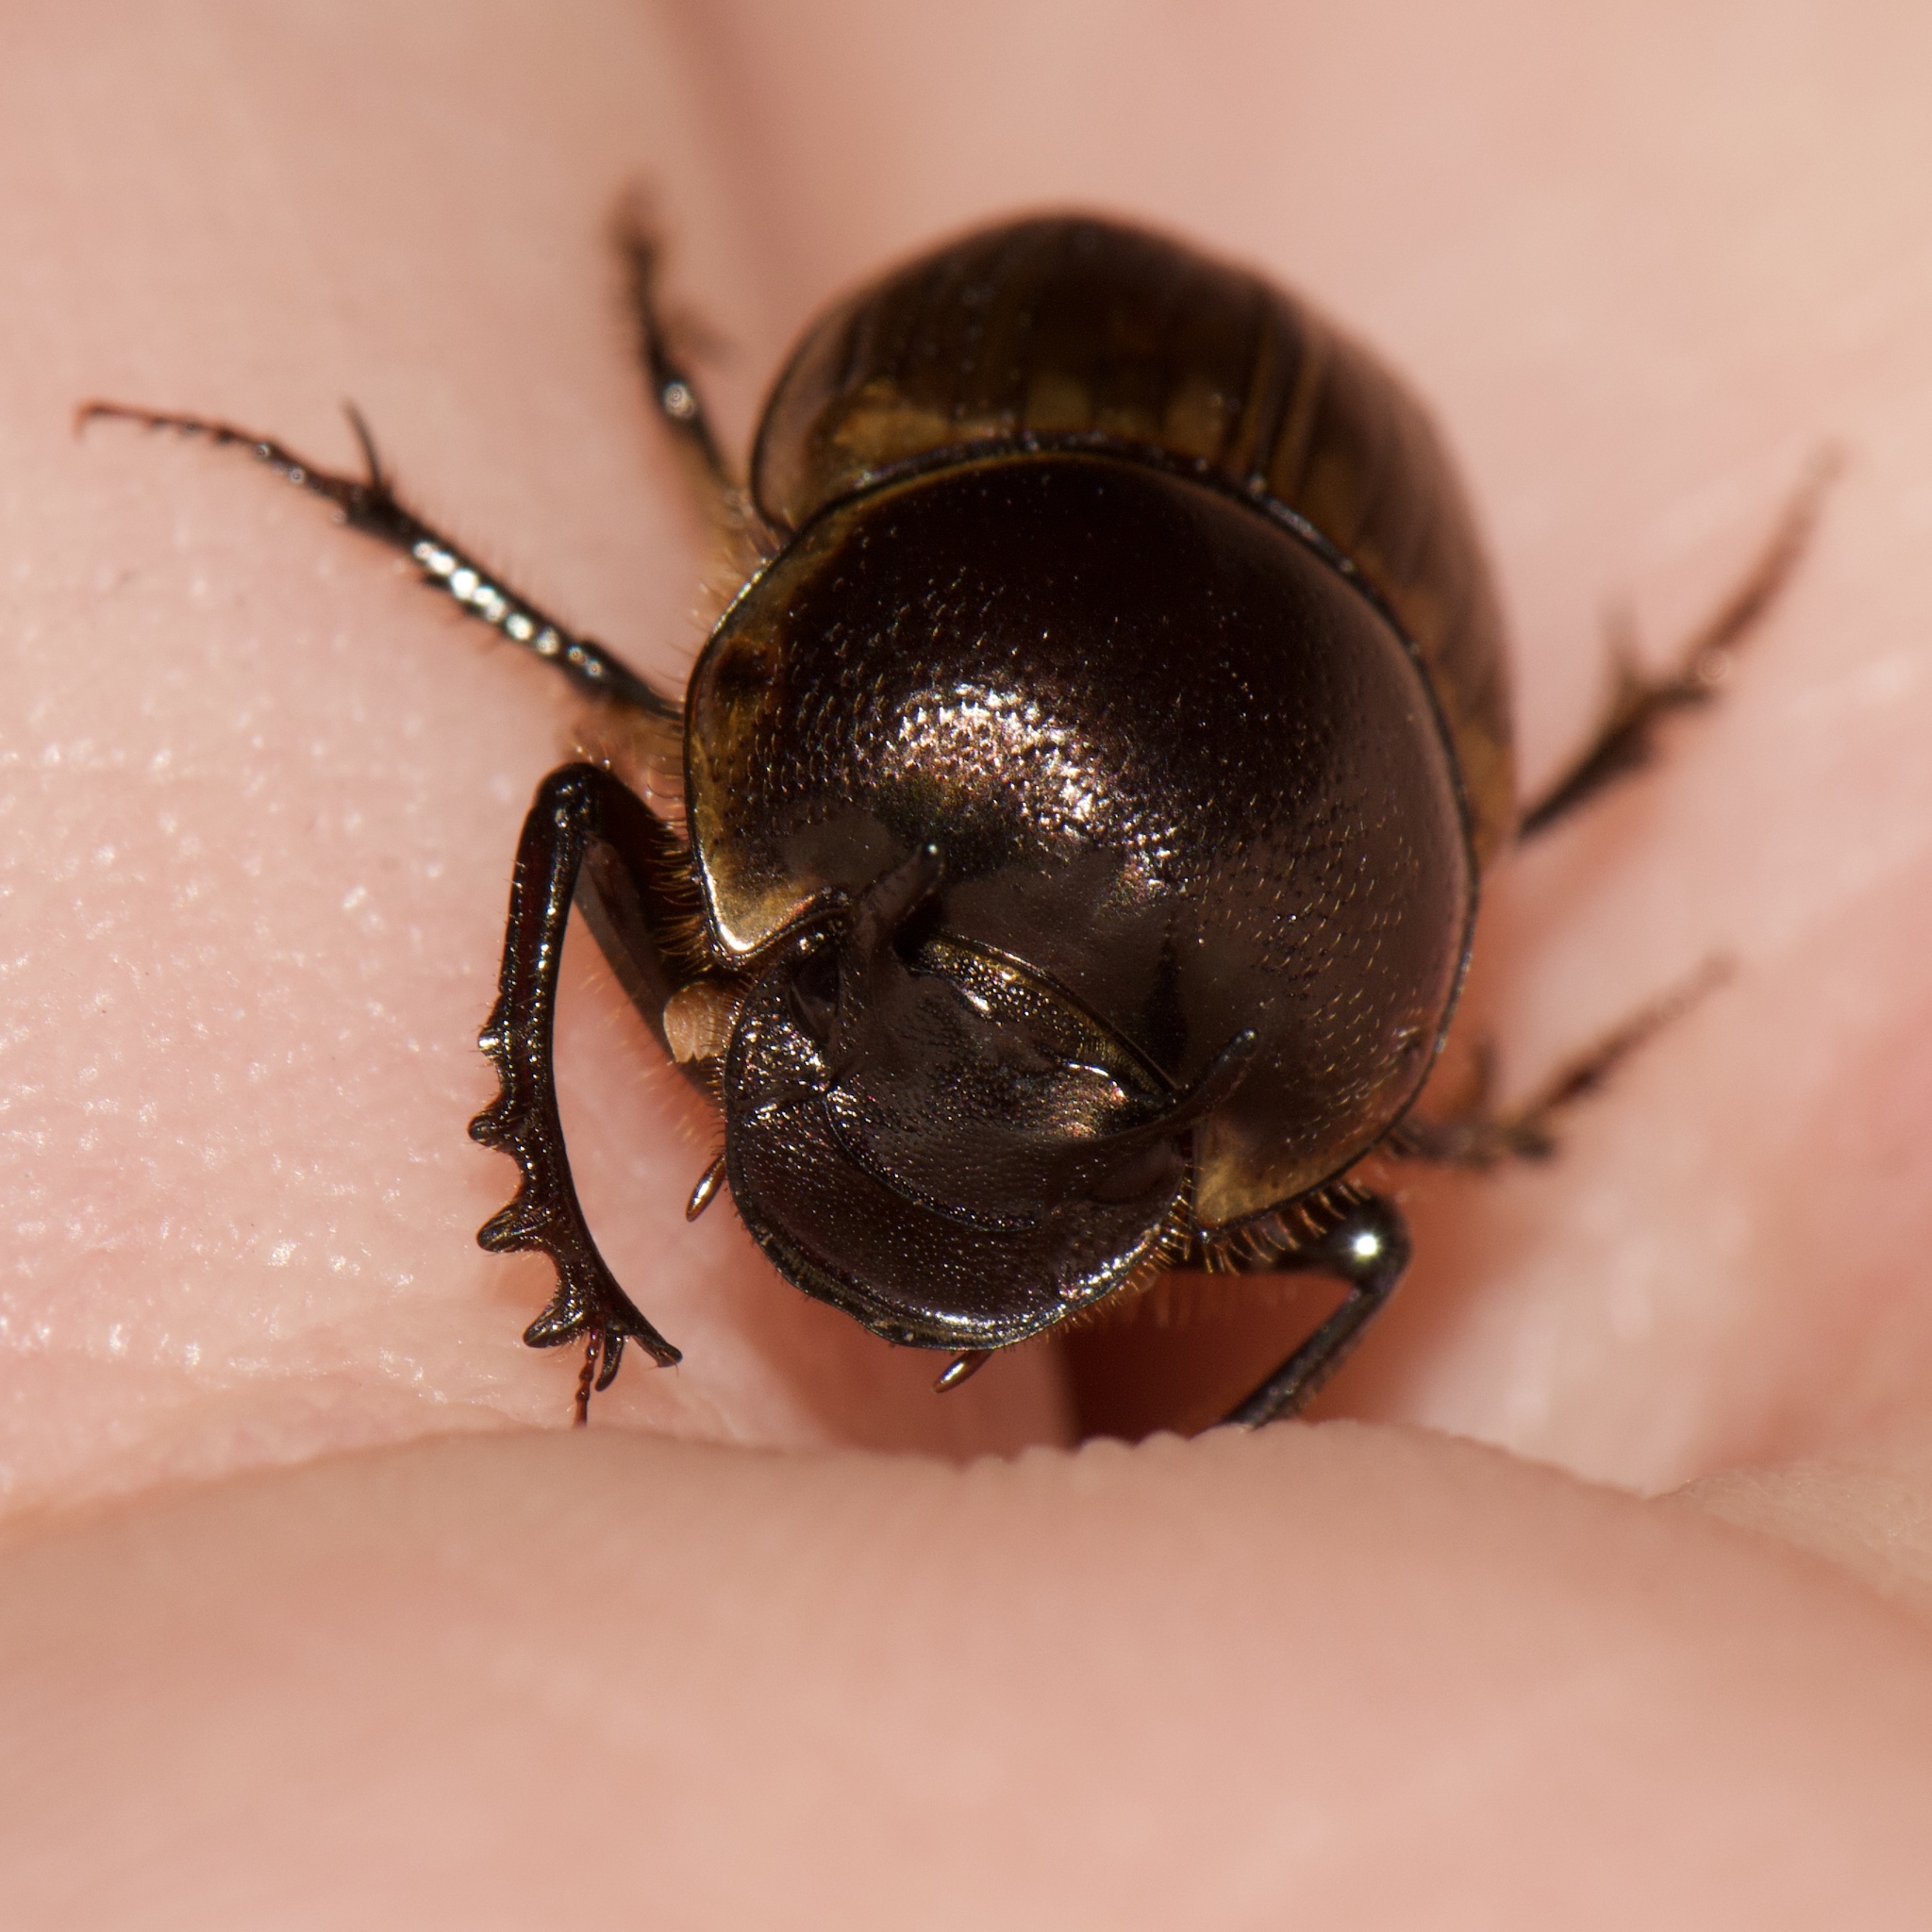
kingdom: Animalia
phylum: Arthropoda
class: Insecta
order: Coleoptera
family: Scarabaeidae
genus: Digitonthophagus
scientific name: Digitonthophagus gazella
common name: Brown dung beetle
